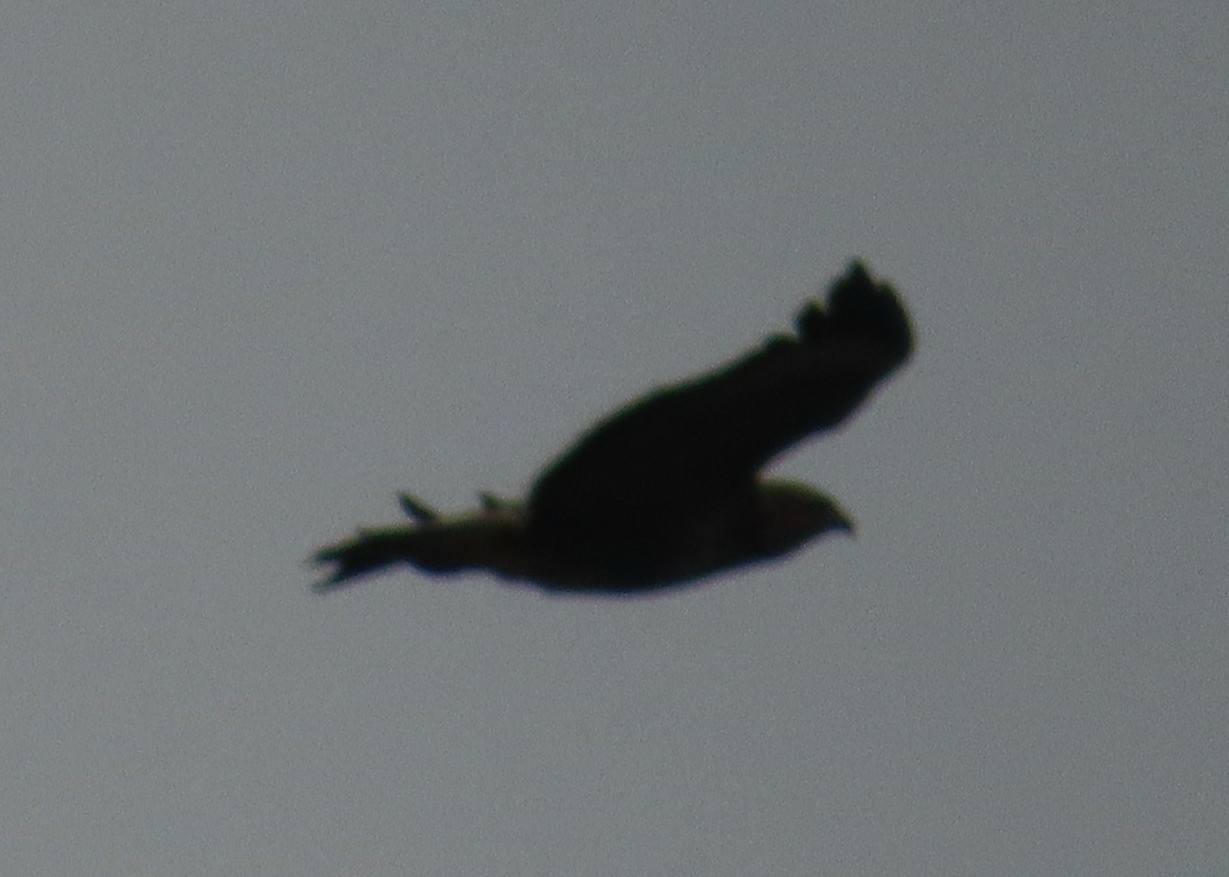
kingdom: Animalia
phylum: Chordata
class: Aves
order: Accipitriformes
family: Accipitridae
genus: Buteo
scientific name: Buteo buteo
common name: Common buzzard
